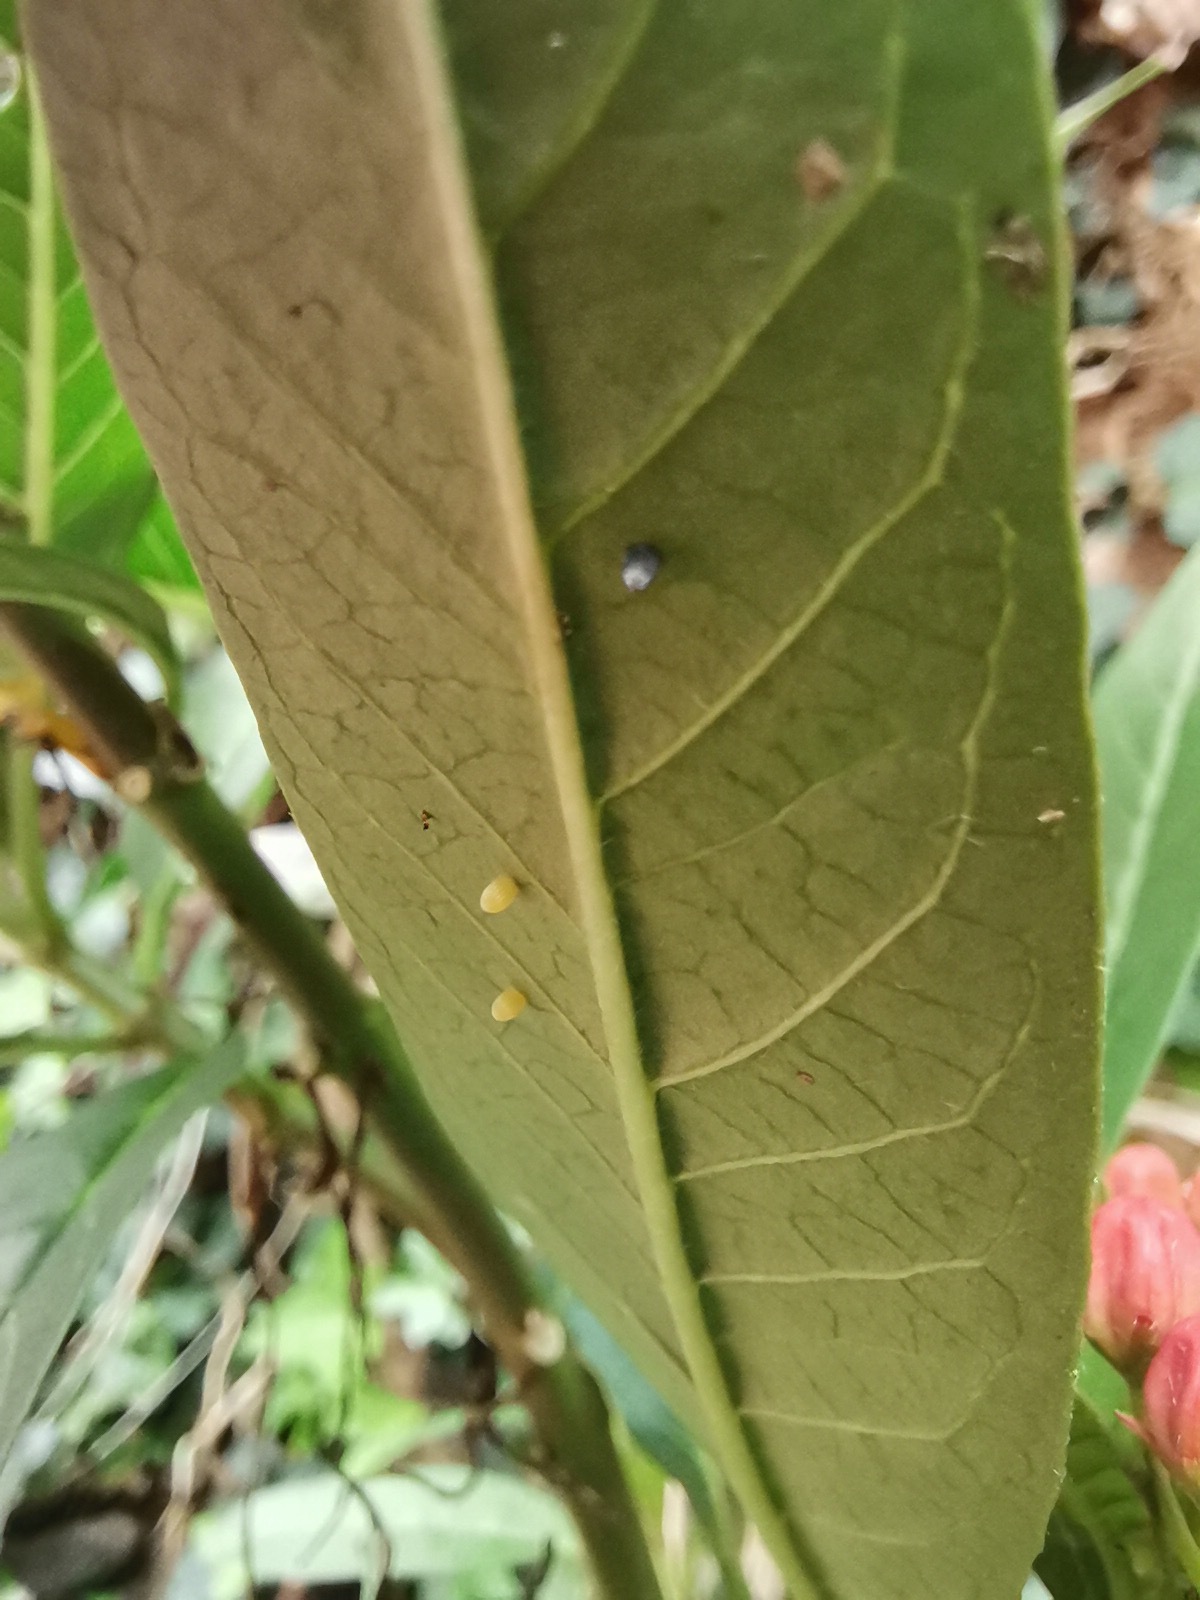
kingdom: Animalia
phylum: Arthropoda
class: Insecta
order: Lepidoptera
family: Nymphalidae
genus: Danaus
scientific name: Danaus plexippus
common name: Monarch
